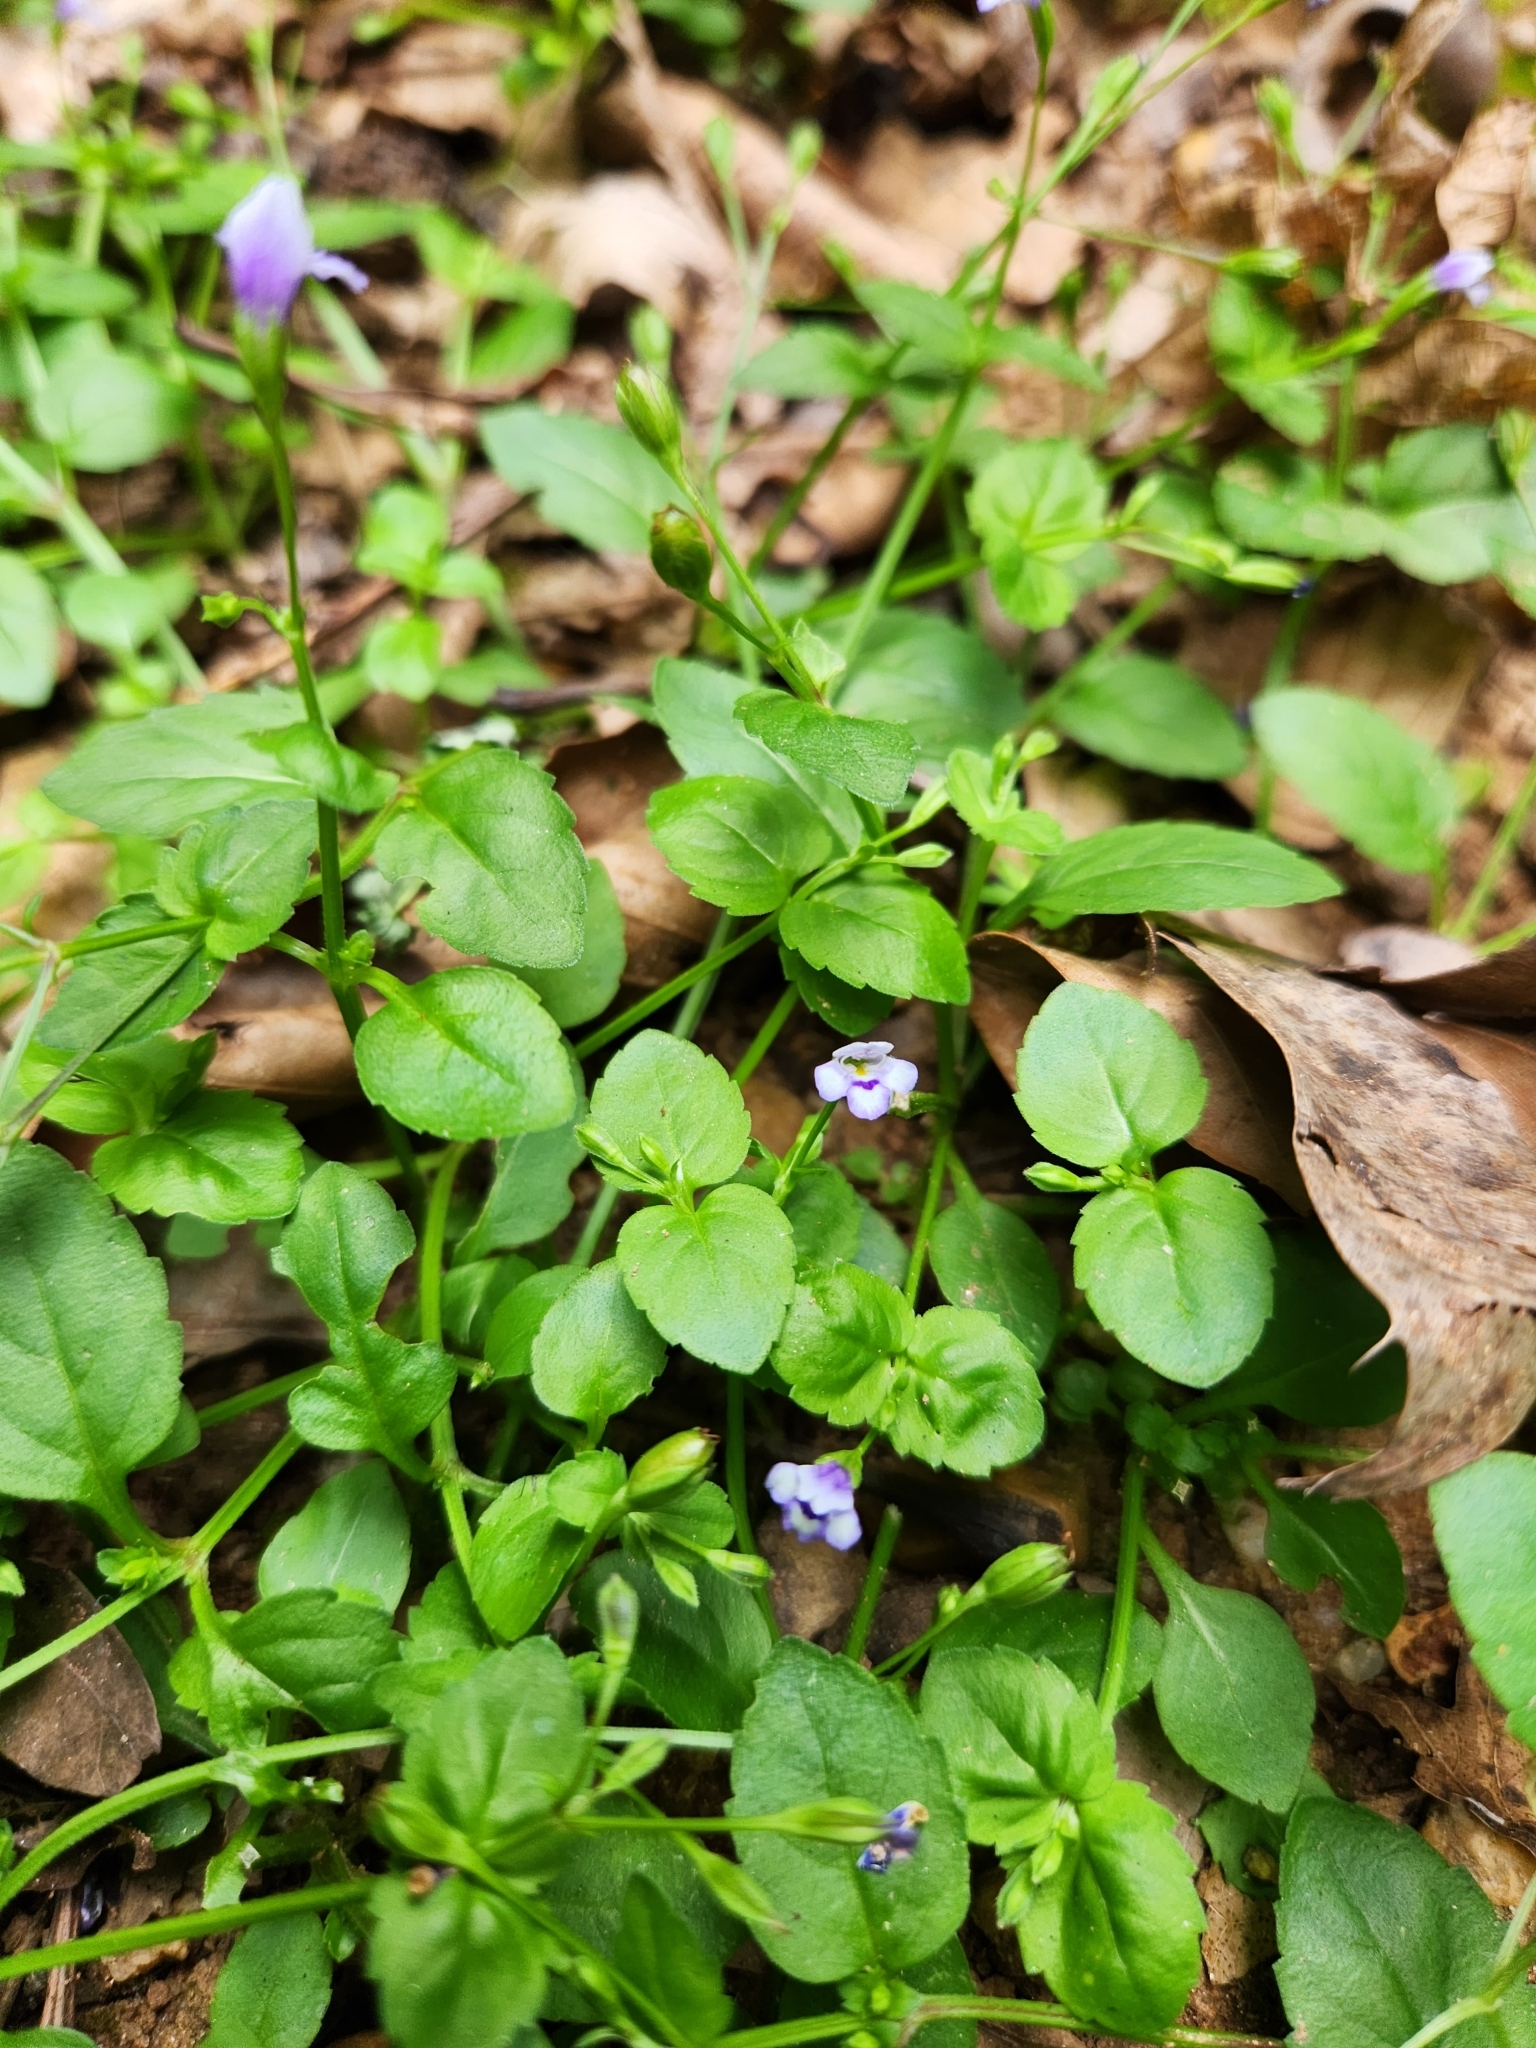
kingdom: Plantae
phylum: Tracheophyta
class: Magnoliopsida
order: Lamiales
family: Linderniaceae
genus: Torenia
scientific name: Torenia crustacea
